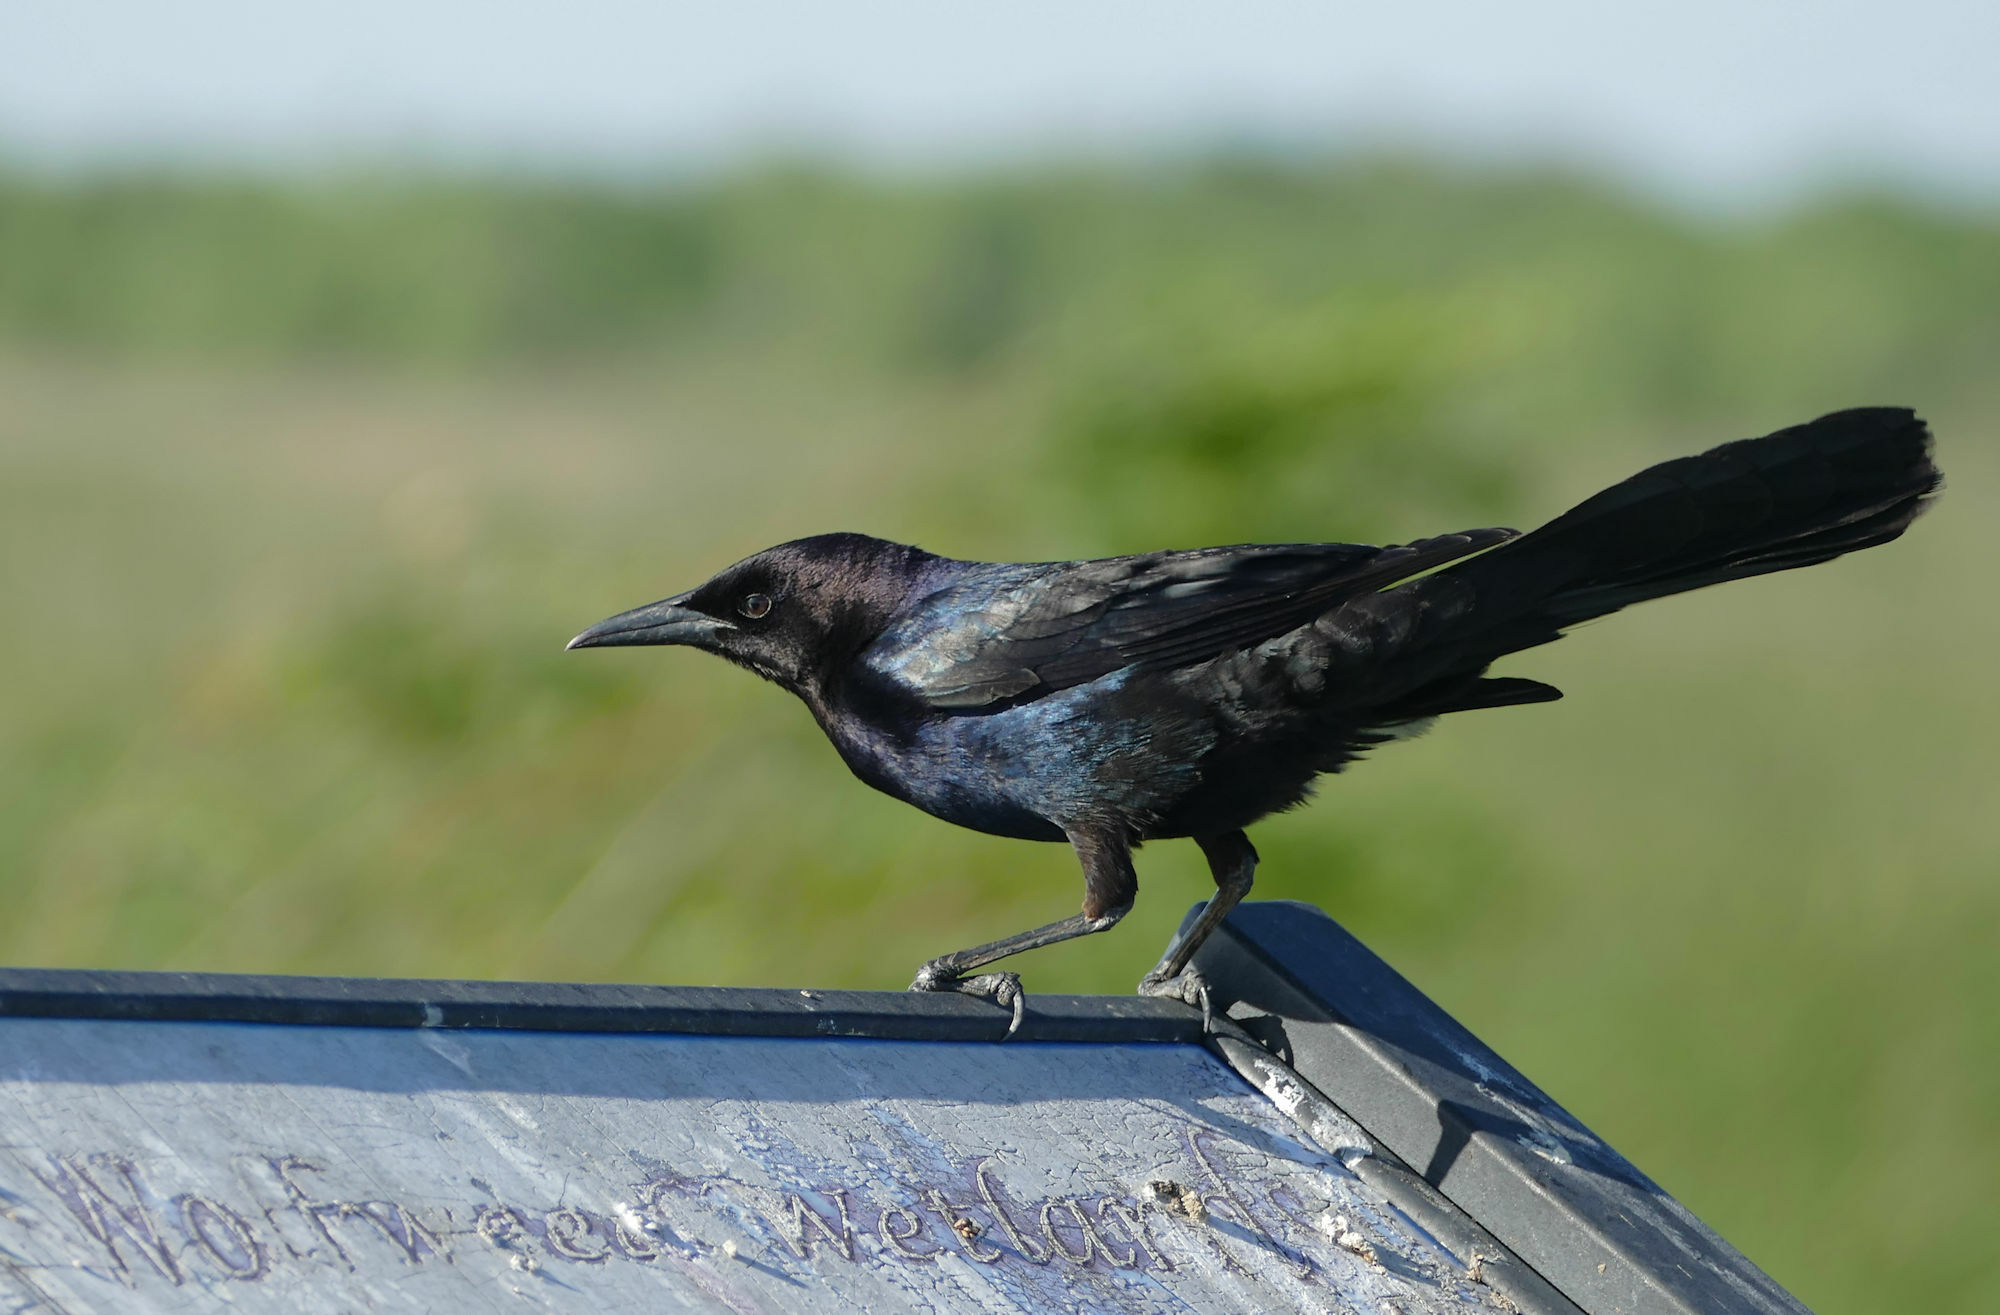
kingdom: Animalia
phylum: Chordata
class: Aves
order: Passeriformes
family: Icteridae
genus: Quiscalus
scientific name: Quiscalus major
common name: Boat-tailed grackle
